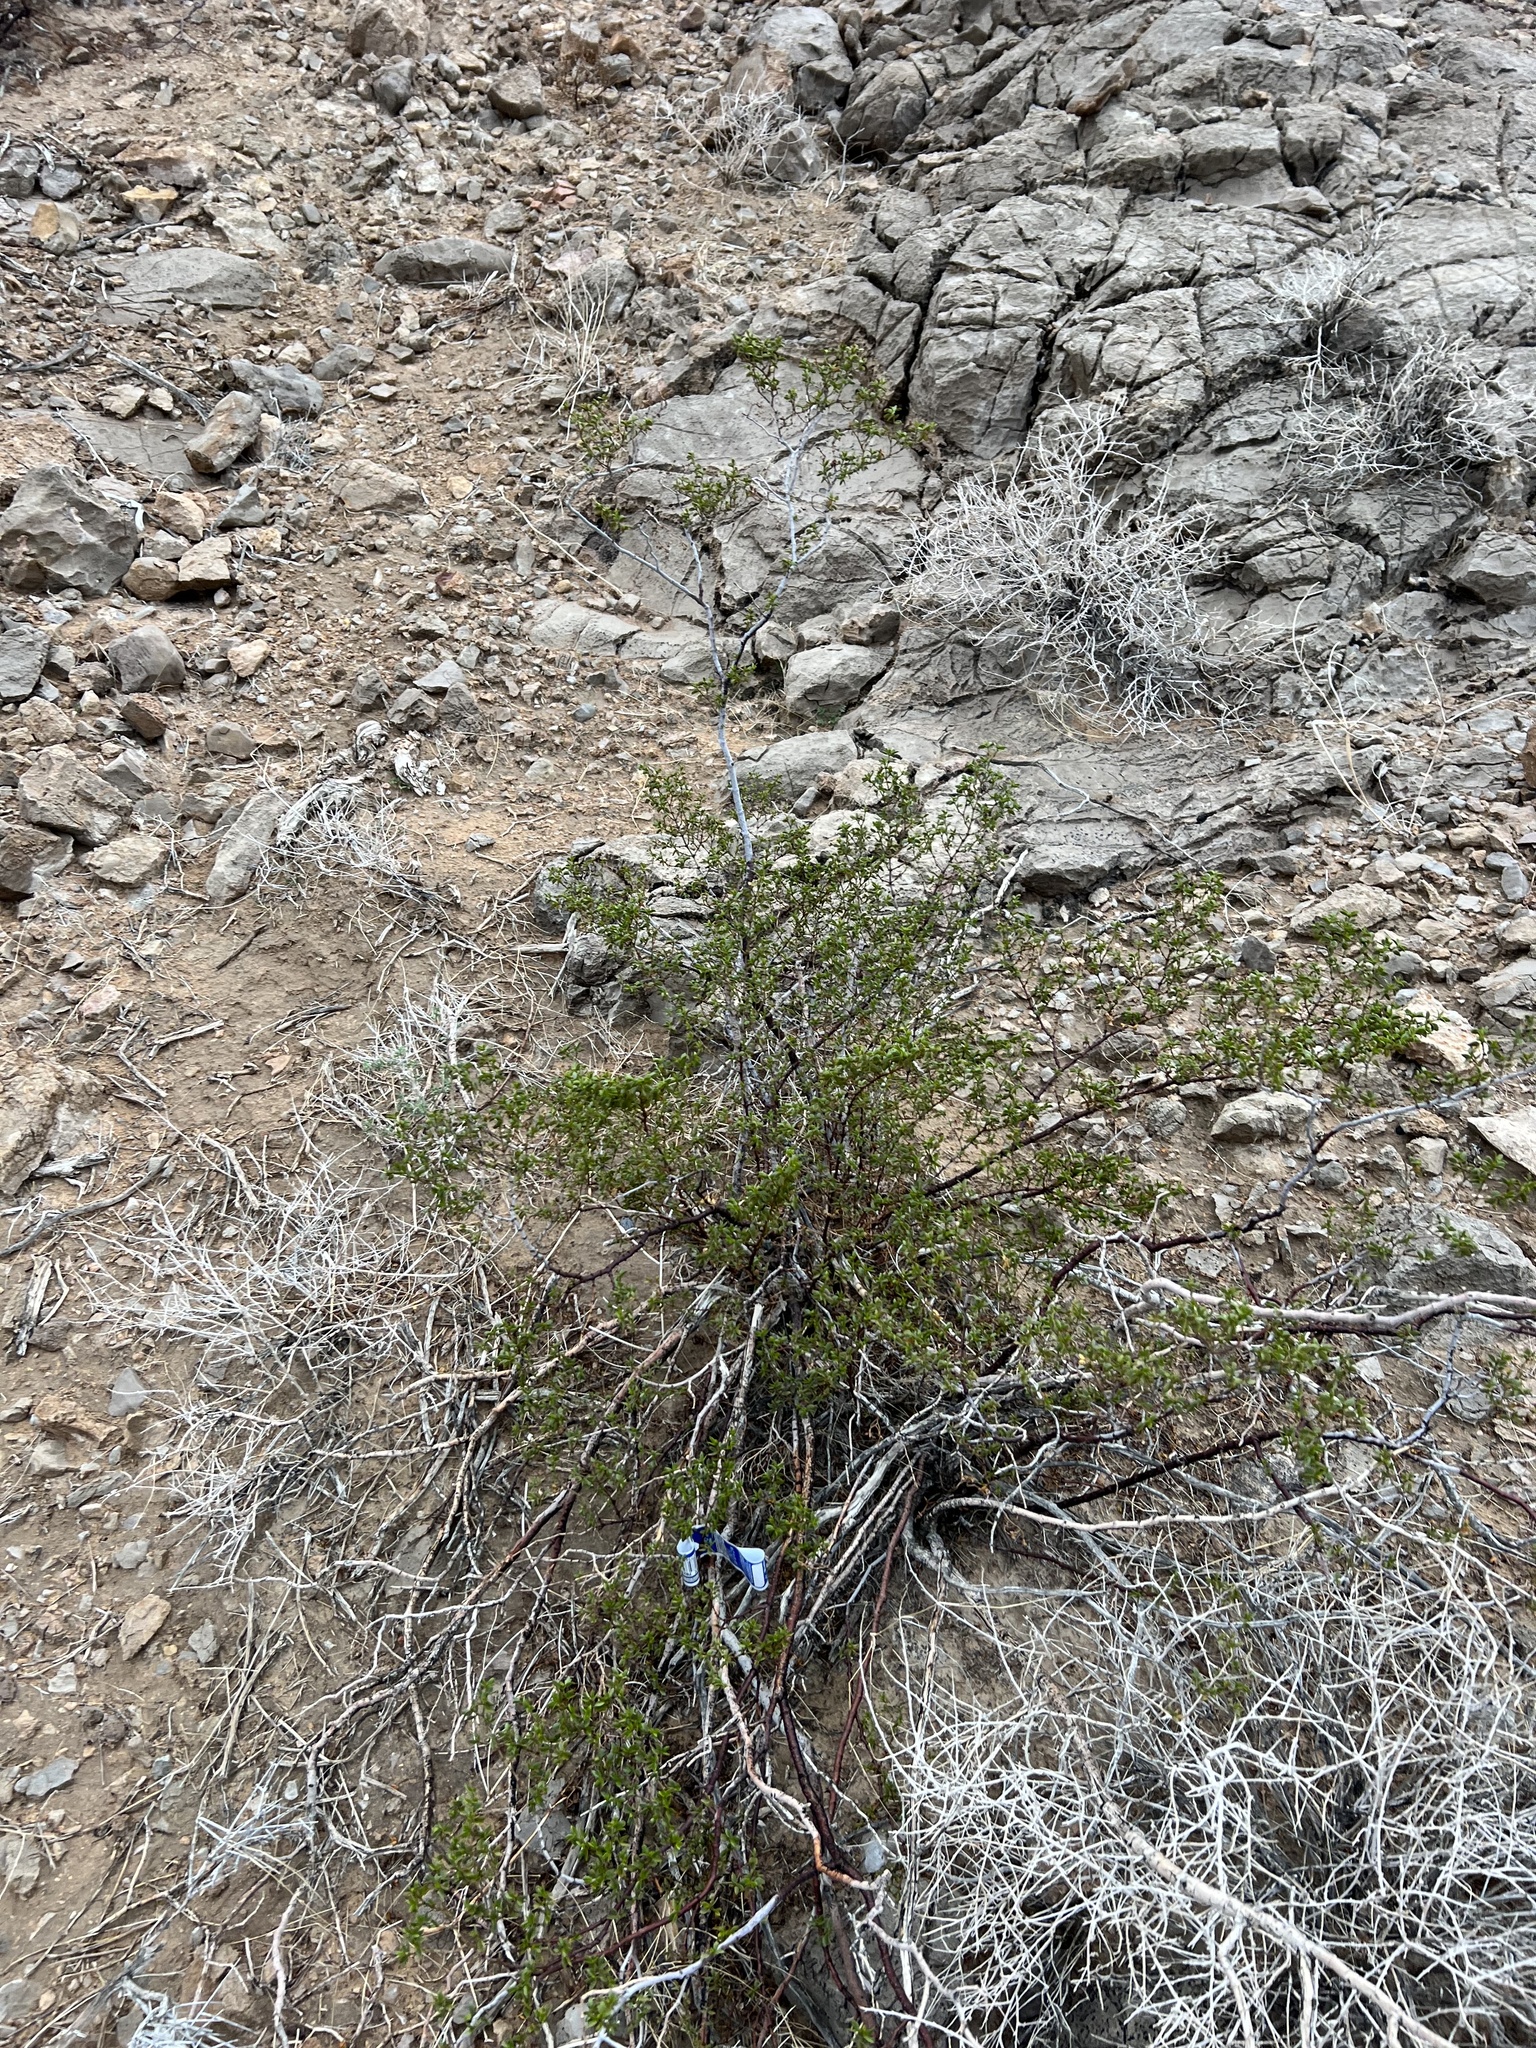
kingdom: Plantae
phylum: Tracheophyta
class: Magnoliopsida
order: Zygophyllales
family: Zygophyllaceae
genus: Larrea
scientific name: Larrea tridentata
